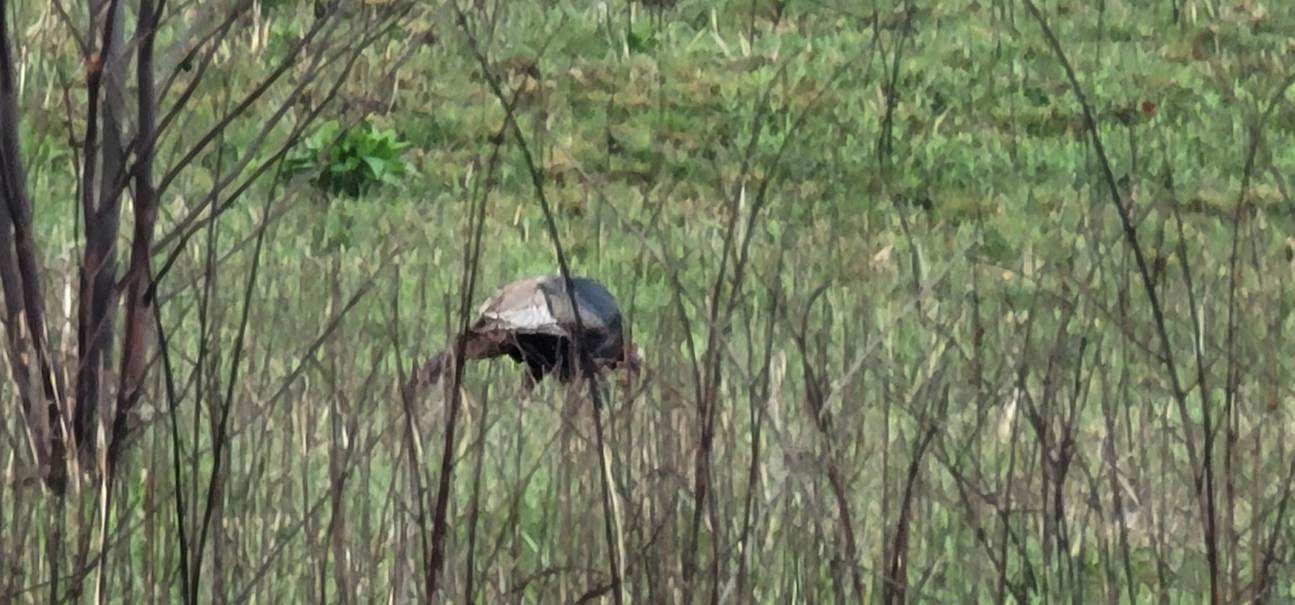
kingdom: Animalia
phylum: Chordata
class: Aves
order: Galliformes
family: Phasianidae
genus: Meleagris
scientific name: Meleagris gallopavo
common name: Wild turkey
